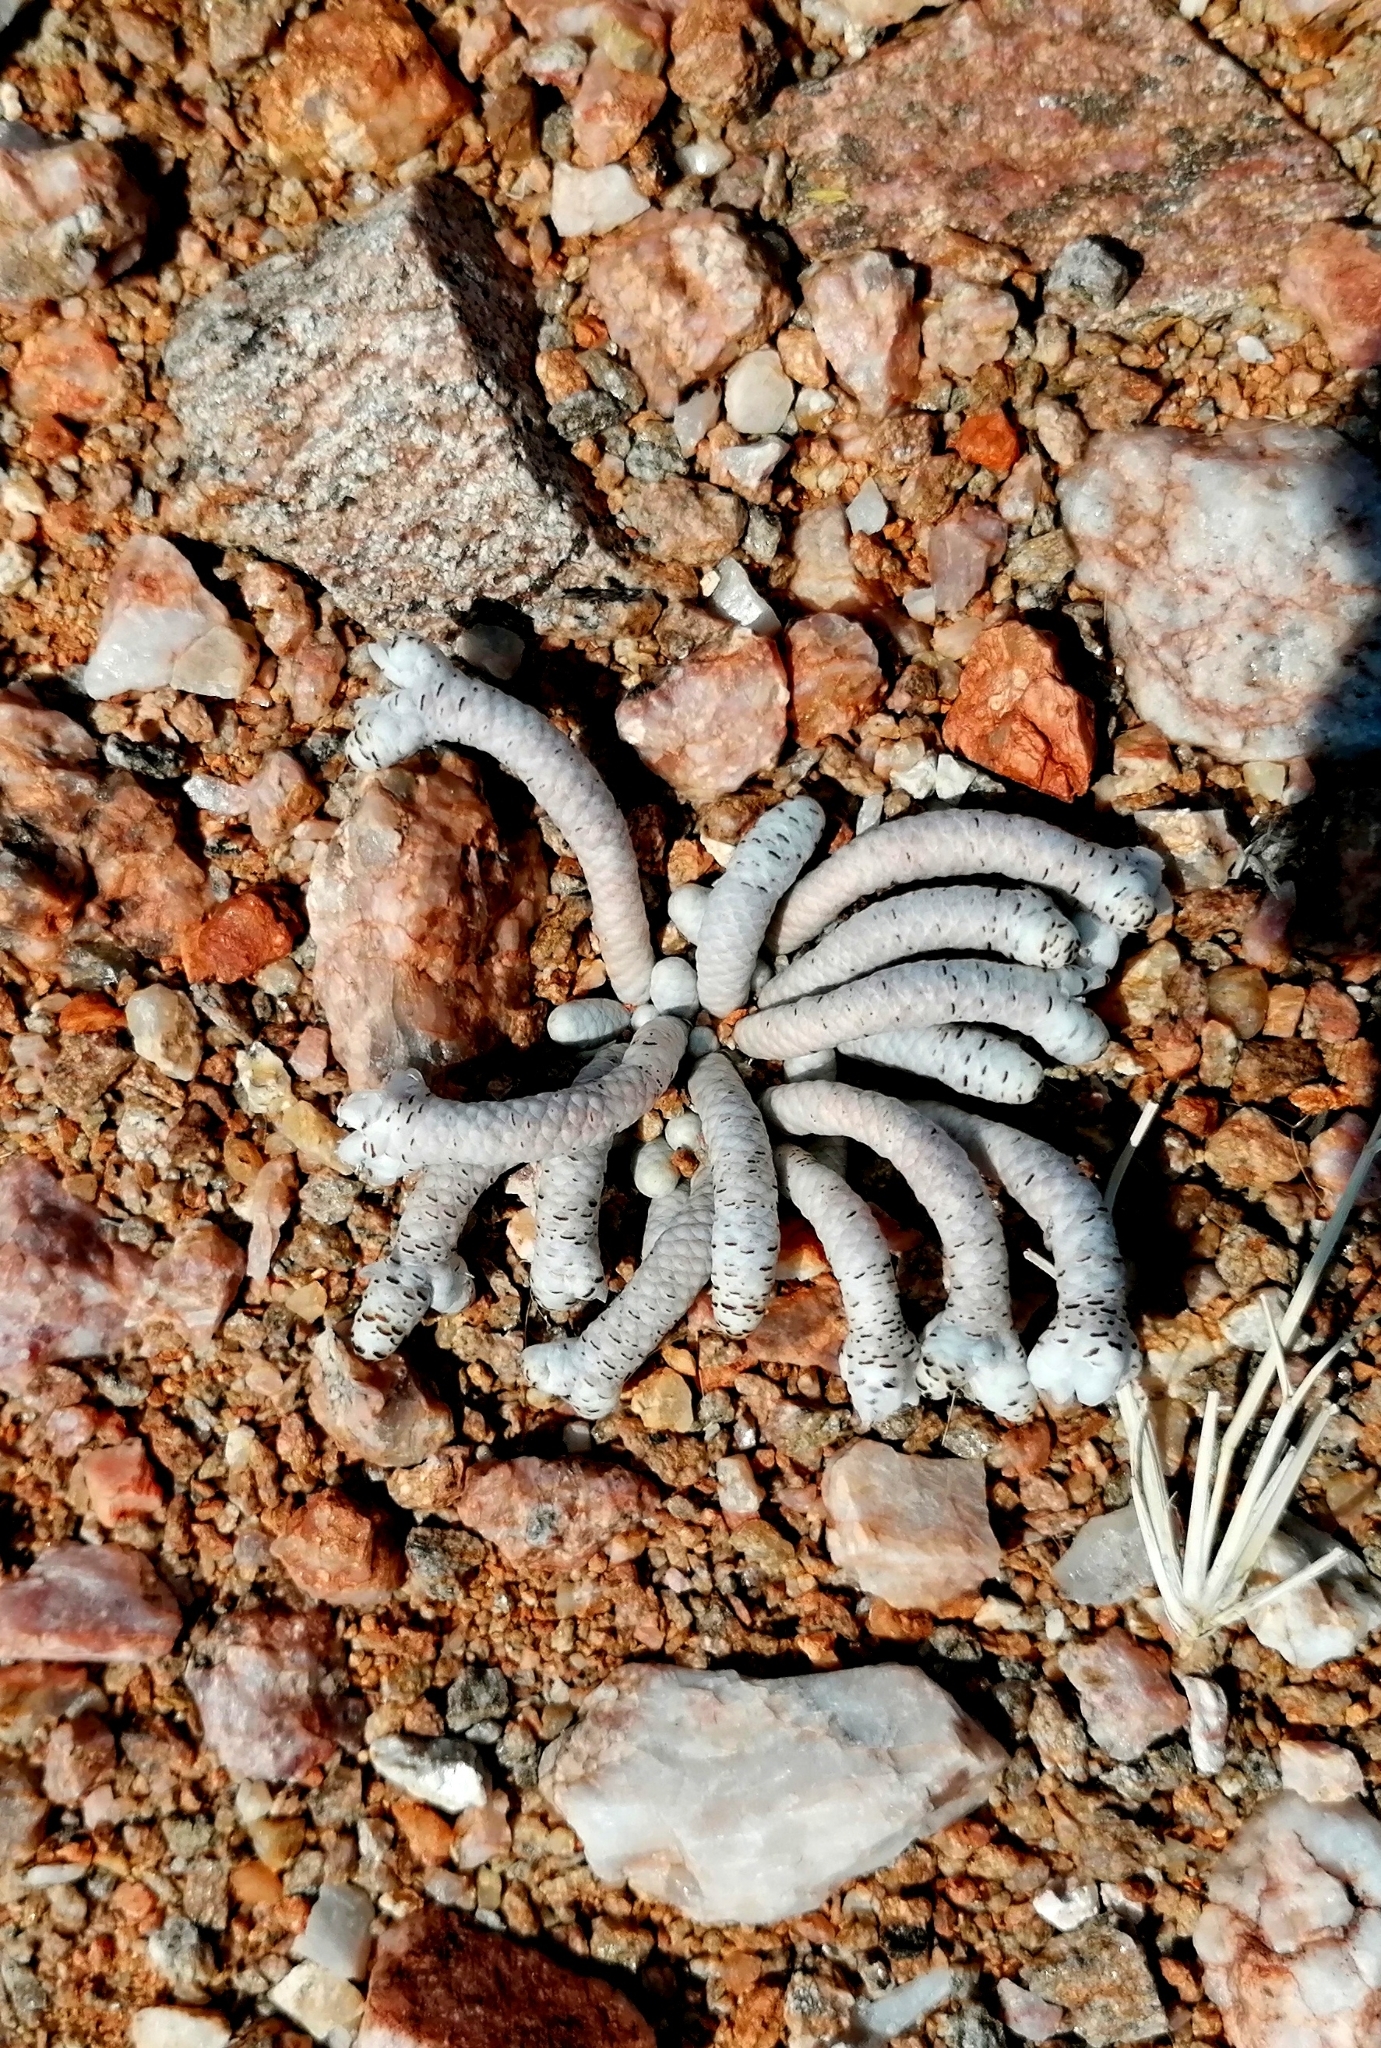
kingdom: Plantae
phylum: Tracheophyta
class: Magnoliopsida
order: Caryophyllales
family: Anacampserotaceae
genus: Avonia
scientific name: Avonia albissima
